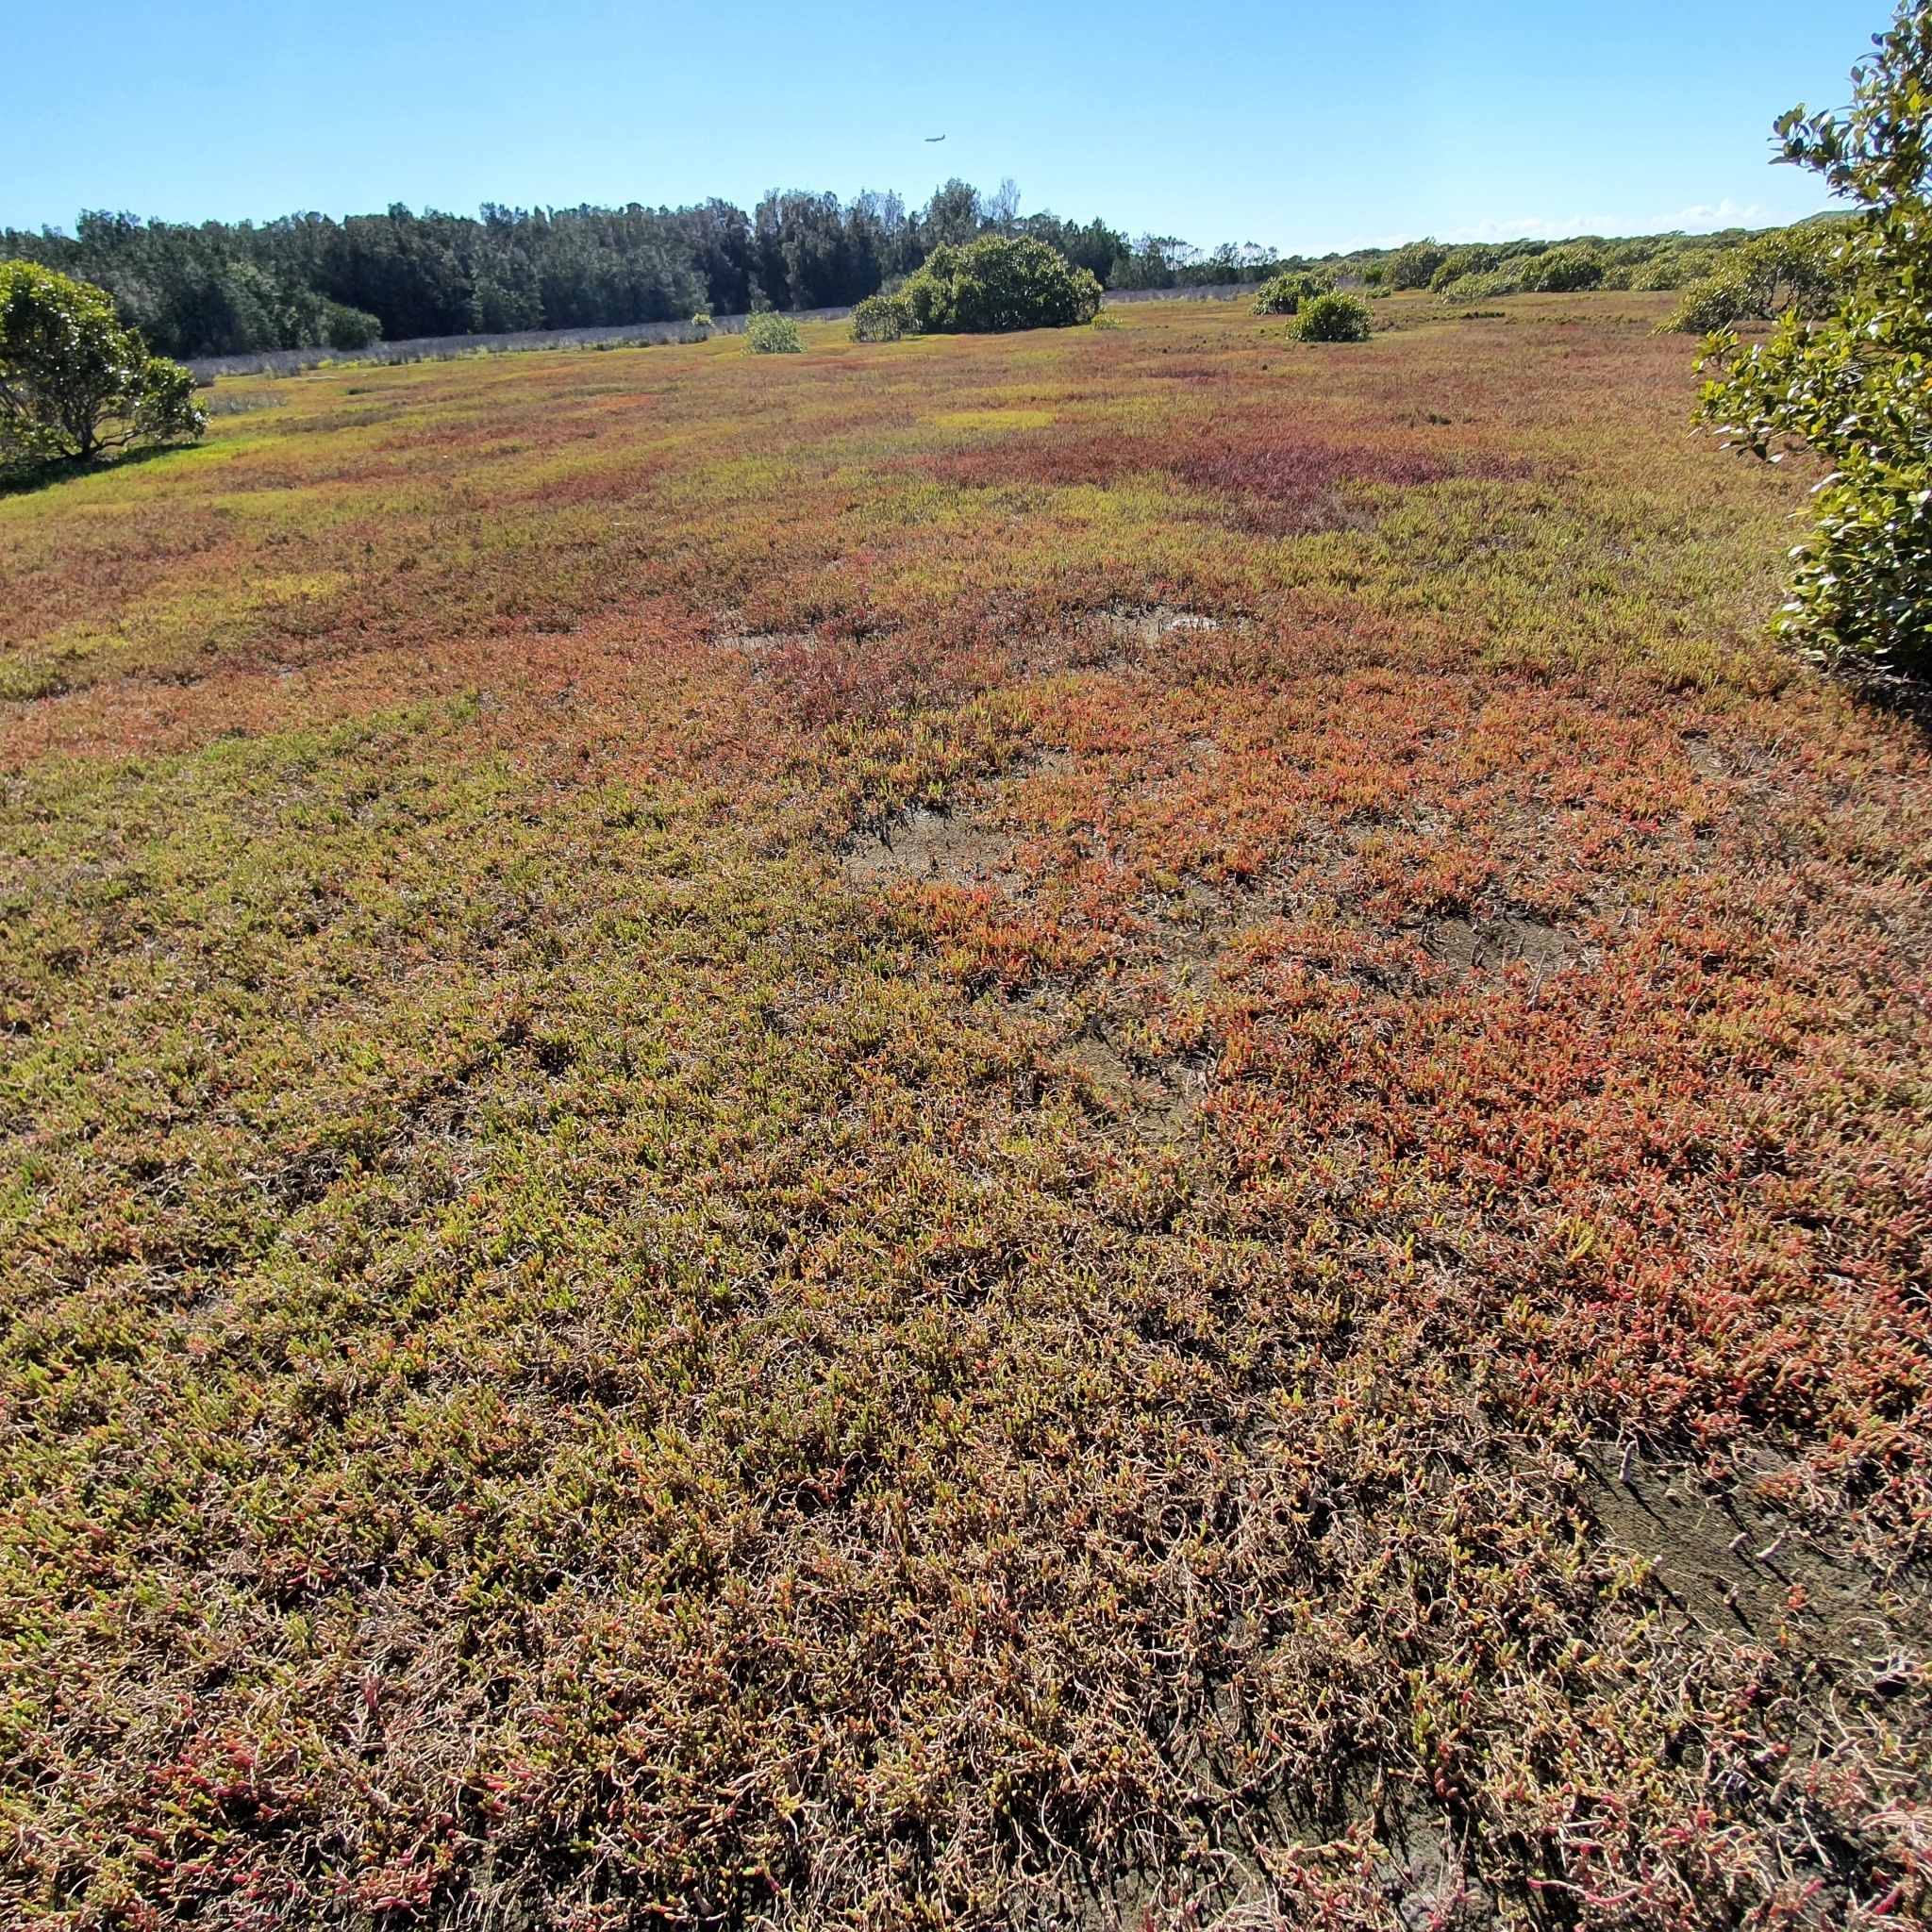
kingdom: Plantae
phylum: Tracheophyta
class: Magnoliopsida
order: Caryophyllales
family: Amaranthaceae
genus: Salicornia
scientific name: Salicornia quinqueflora
